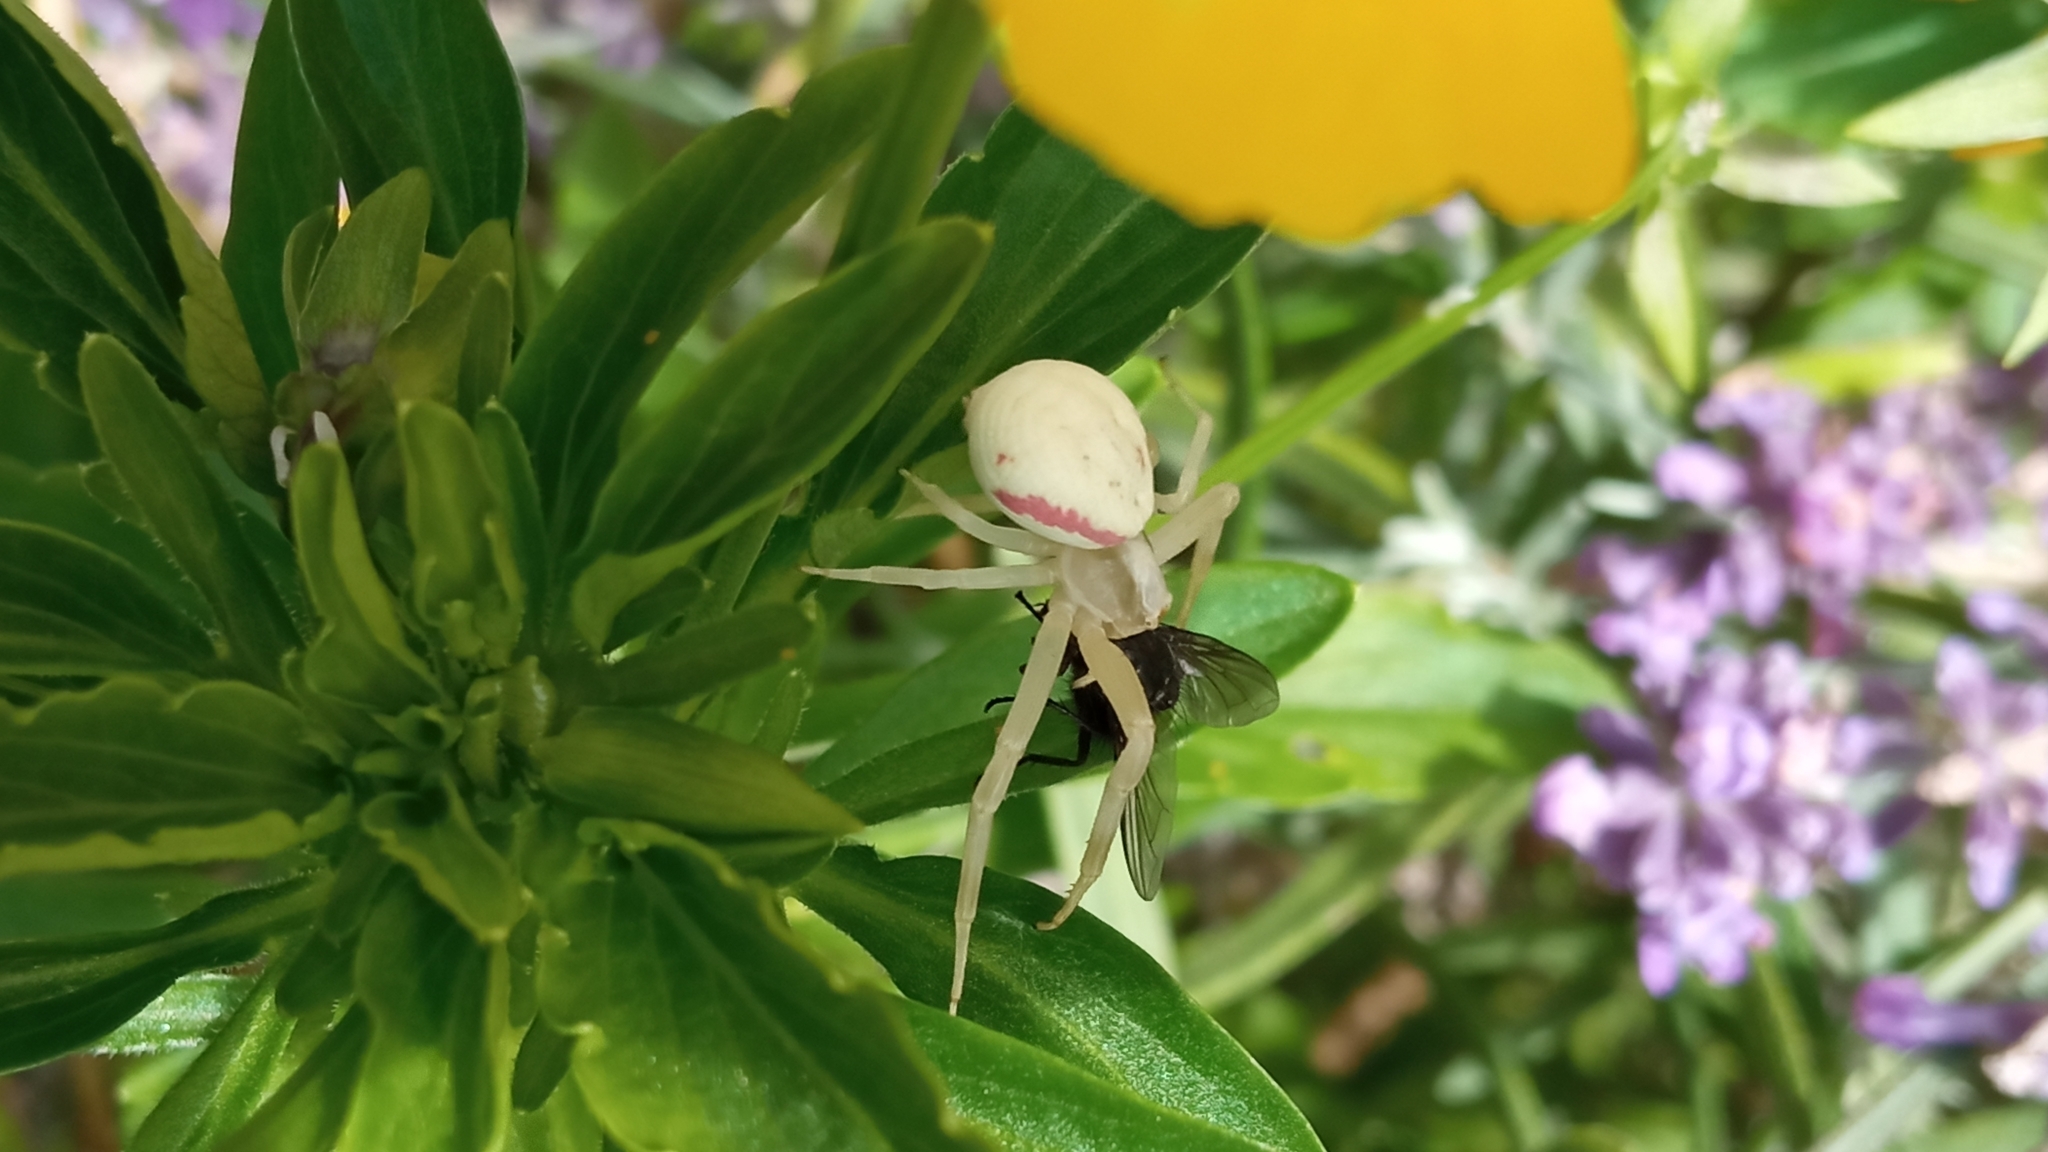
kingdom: Animalia
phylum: Arthropoda
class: Arachnida
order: Araneae
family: Thomisidae
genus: Misumena
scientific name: Misumena vatia
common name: Goldenrod crab spider
